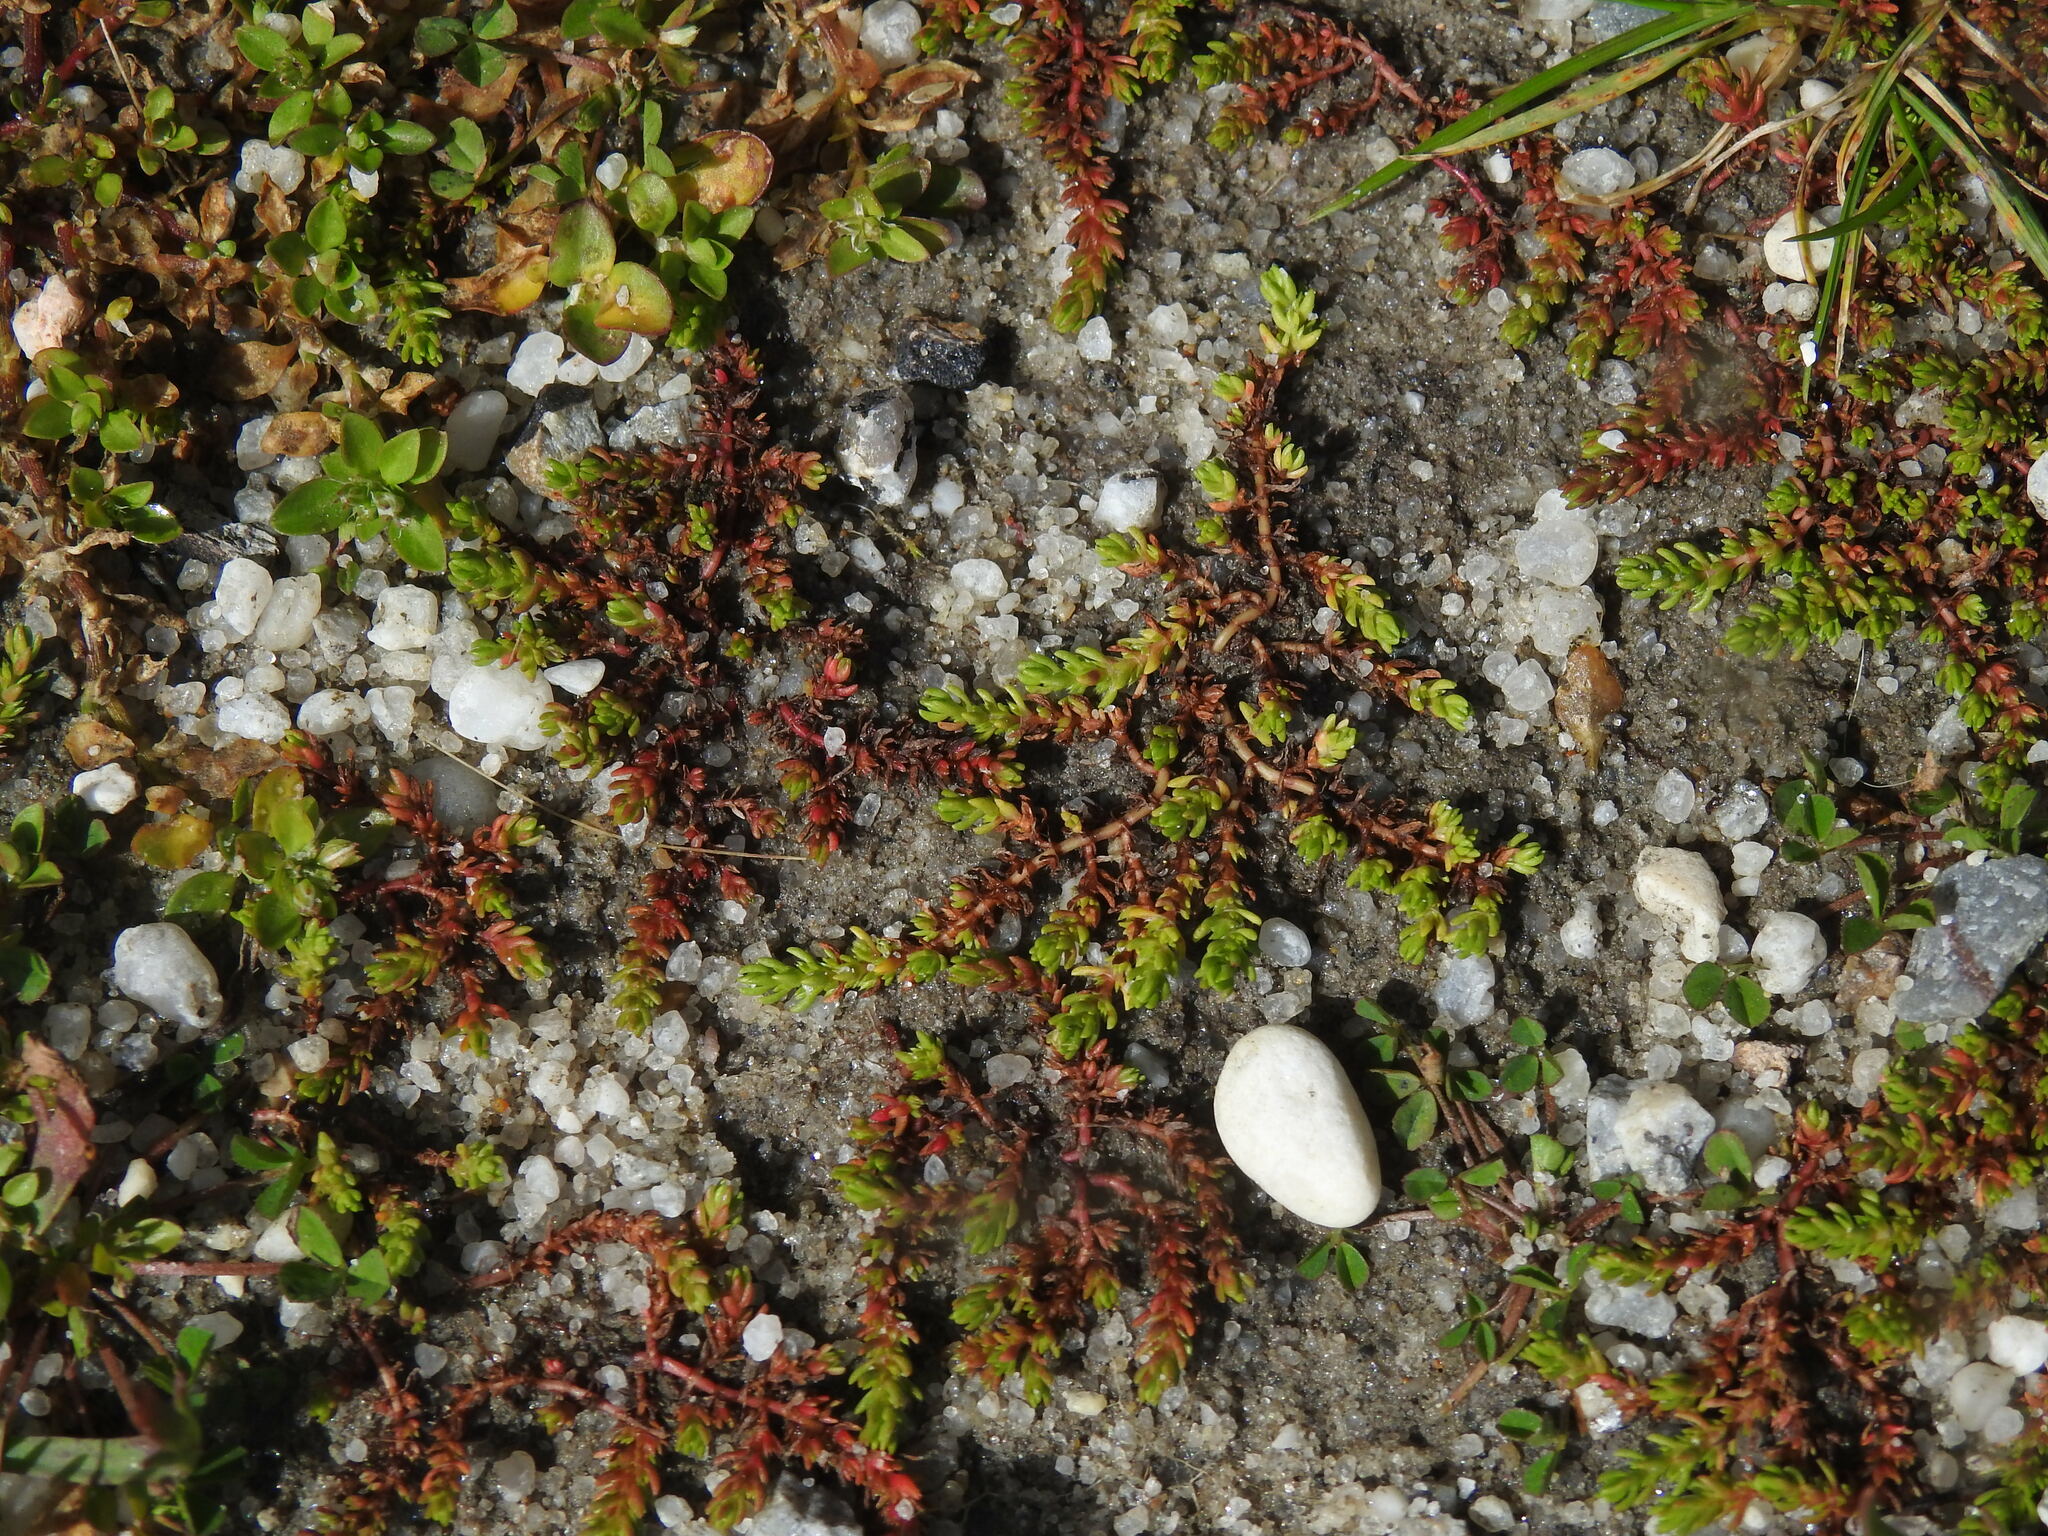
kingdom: Plantae
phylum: Tracheophyta
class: Magnoliopsida
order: Saxifragales
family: Crassulaceae
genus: Crassula
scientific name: Crassula tillaea
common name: Mossy stonecrop
